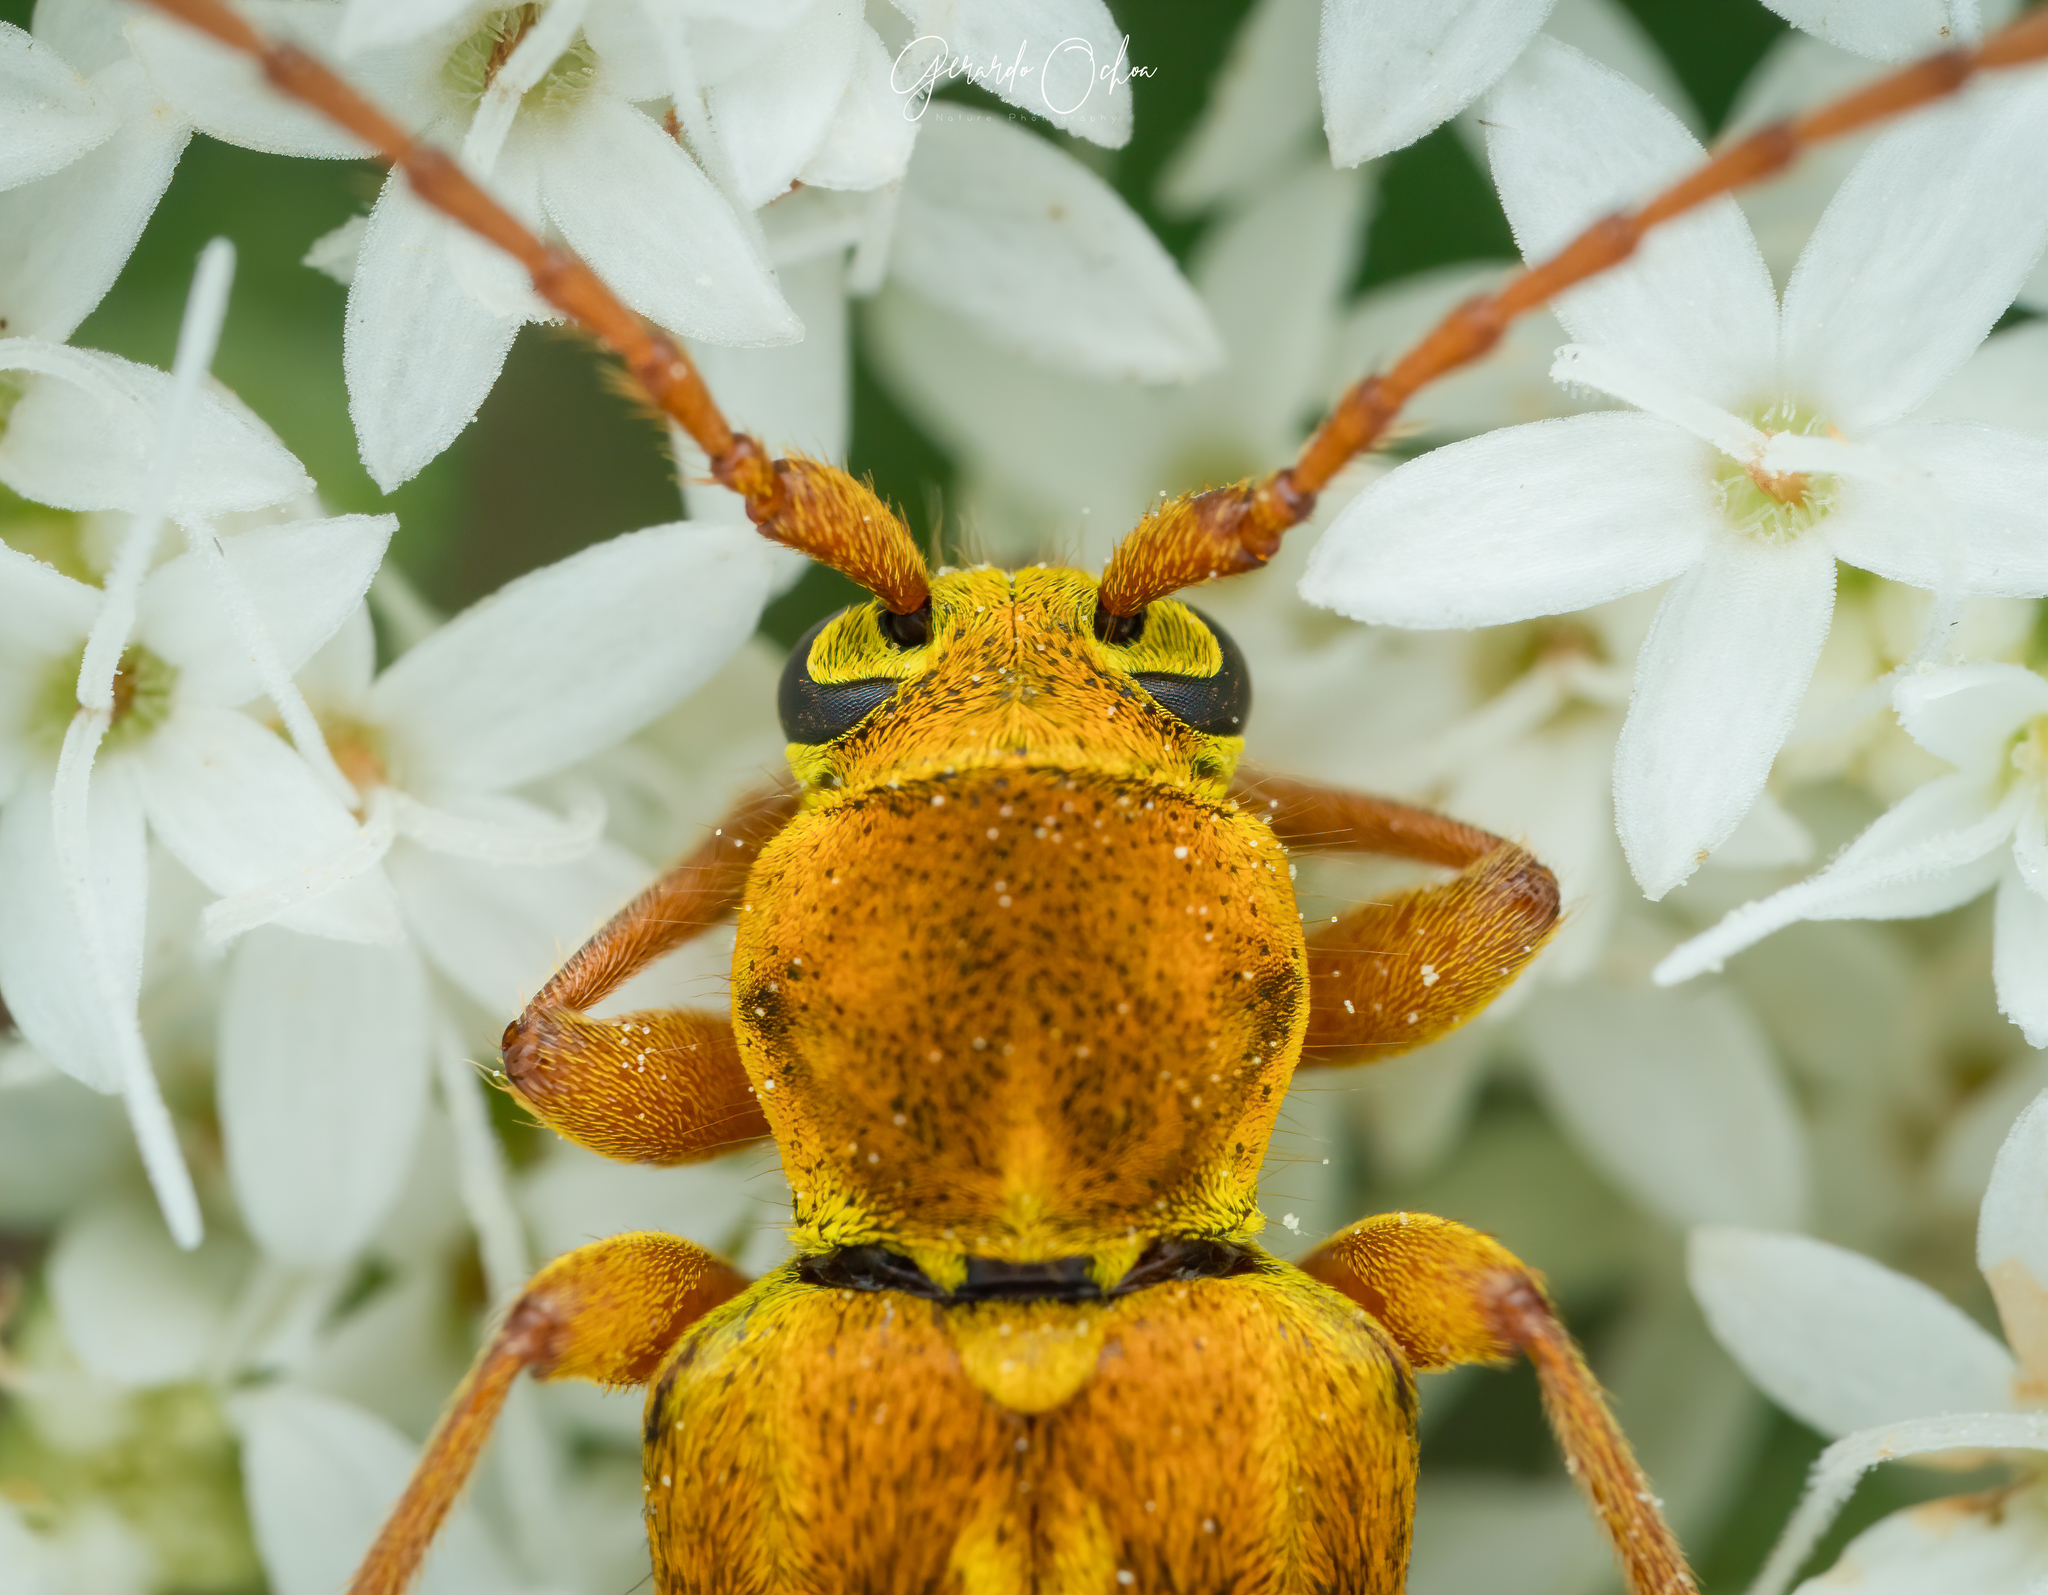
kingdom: Animalia
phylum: Arthropoda
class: Insecta
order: Coleoptera
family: Cerambycidae
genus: Ochraethes
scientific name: Ochraethes z-littera
